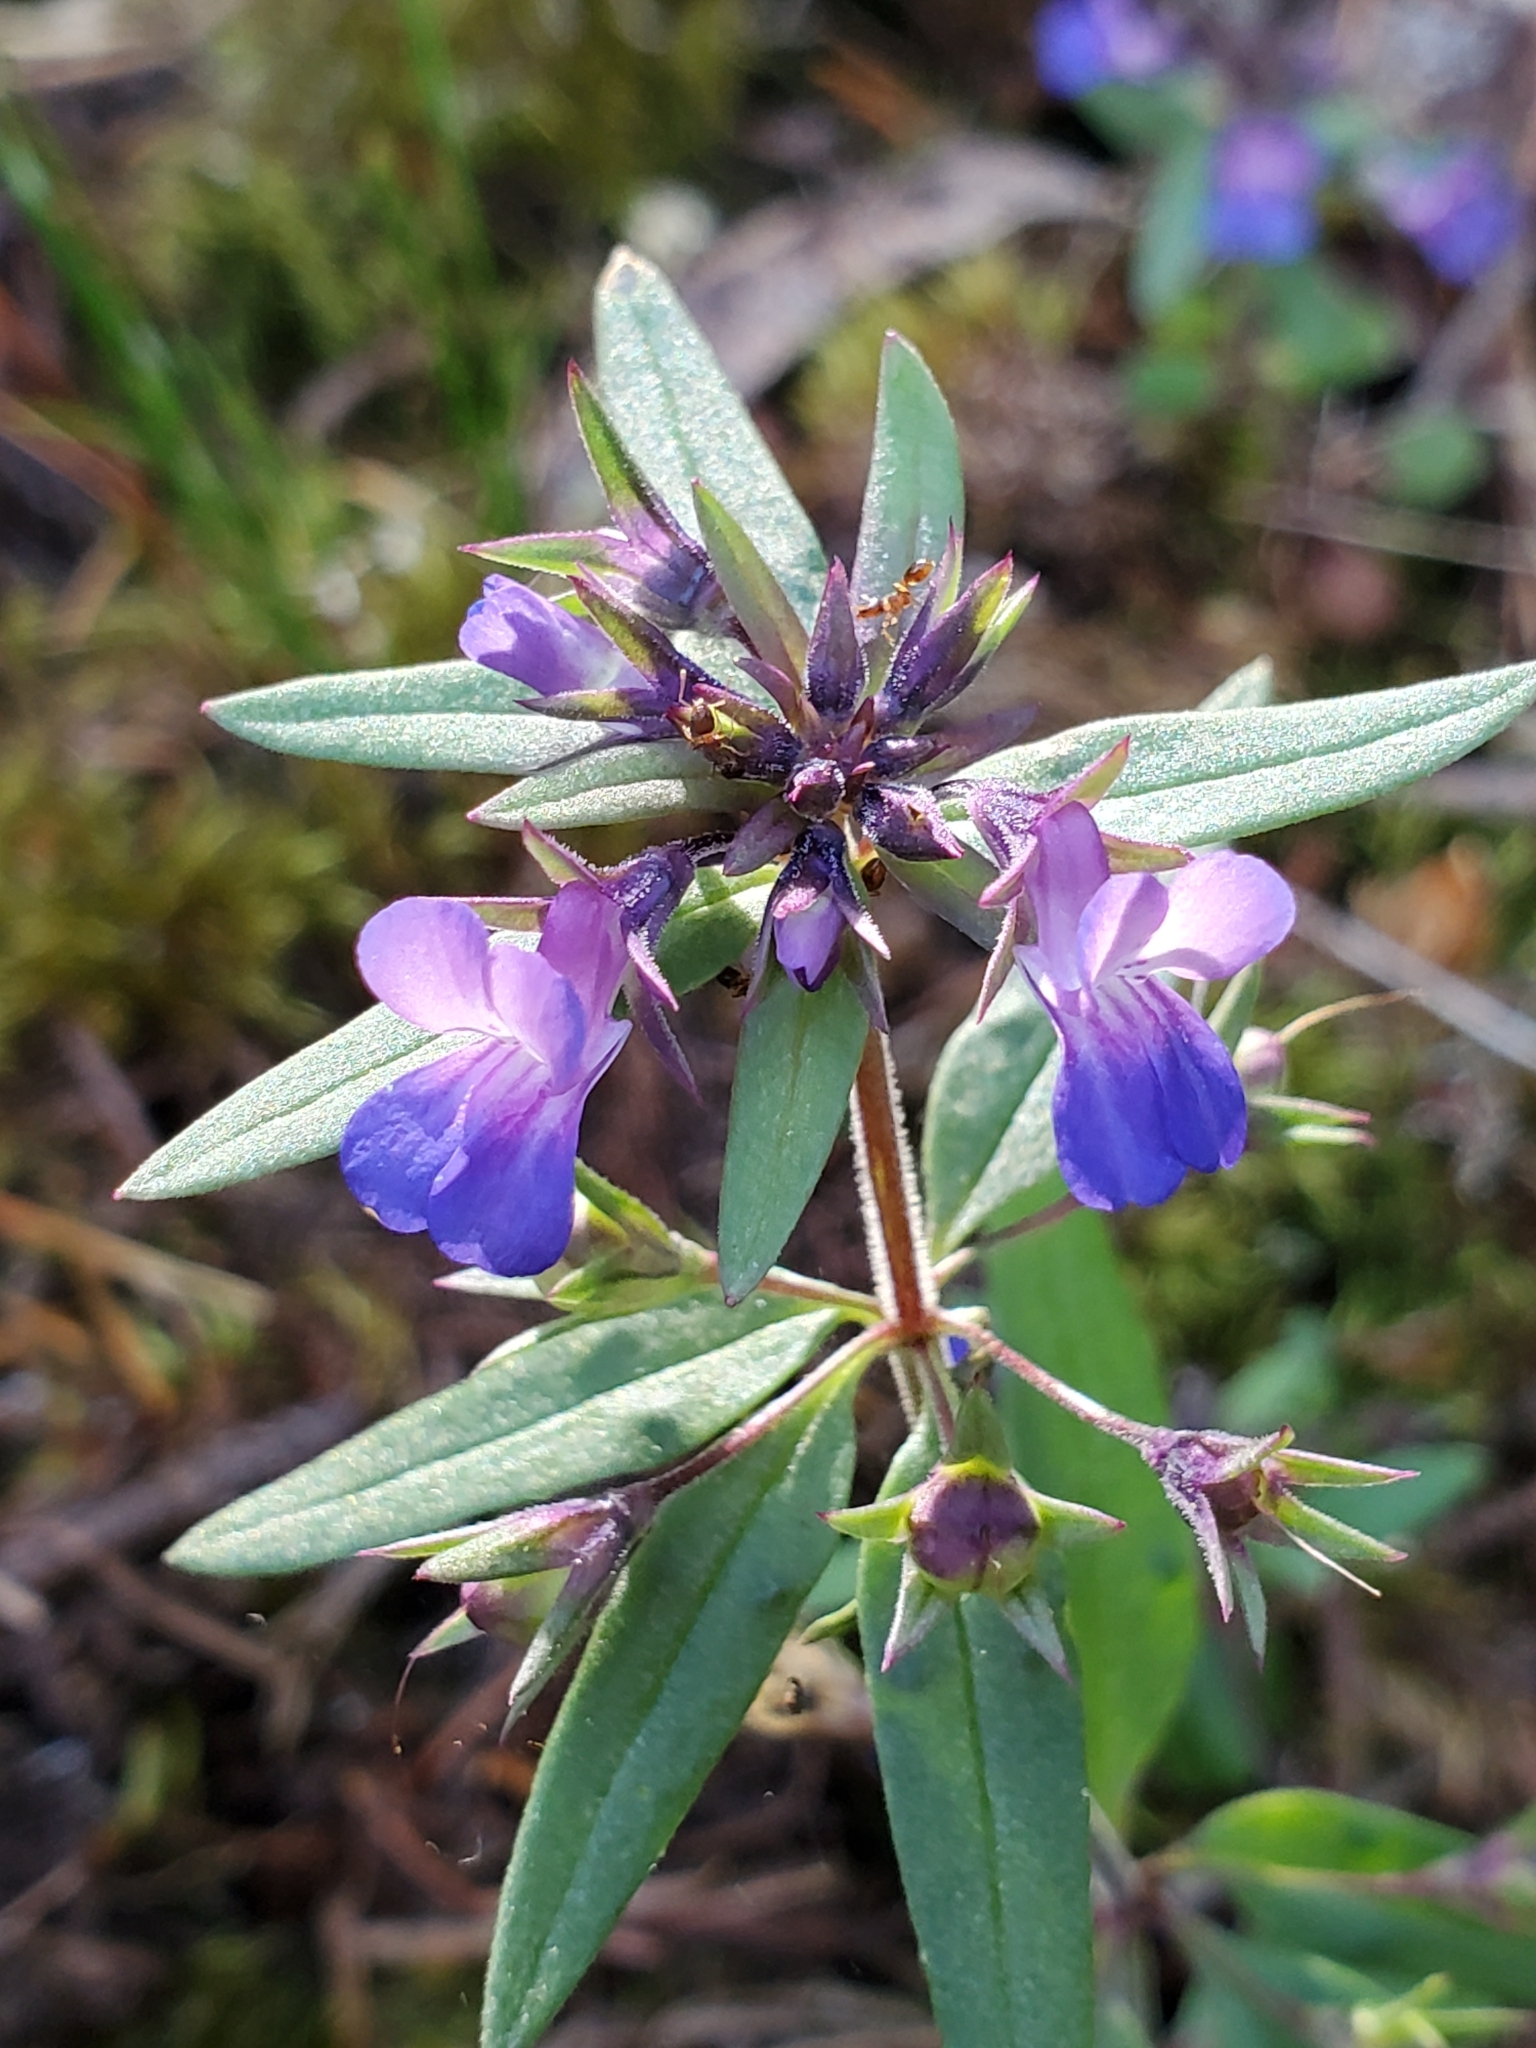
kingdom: Plantae
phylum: Tracheophyta
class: Magnoliopsida
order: Lamiales
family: Plantaginaceae
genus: Collinsia
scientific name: Collinsia parviflora
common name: Blue-lips
